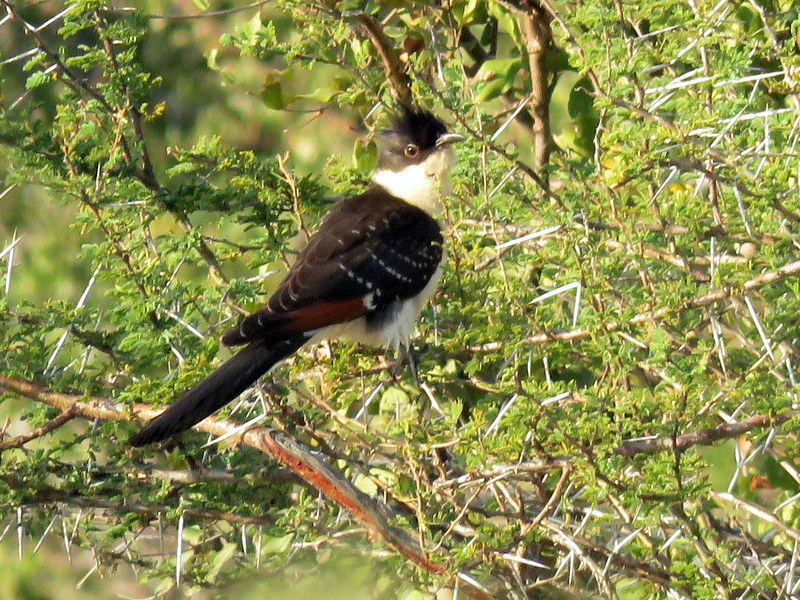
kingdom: Animalia
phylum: Chordata
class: Aves
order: Cuculiformes
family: Cuculidae
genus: Clamator
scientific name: Clamator glandarius
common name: Great spotted cuckoo
